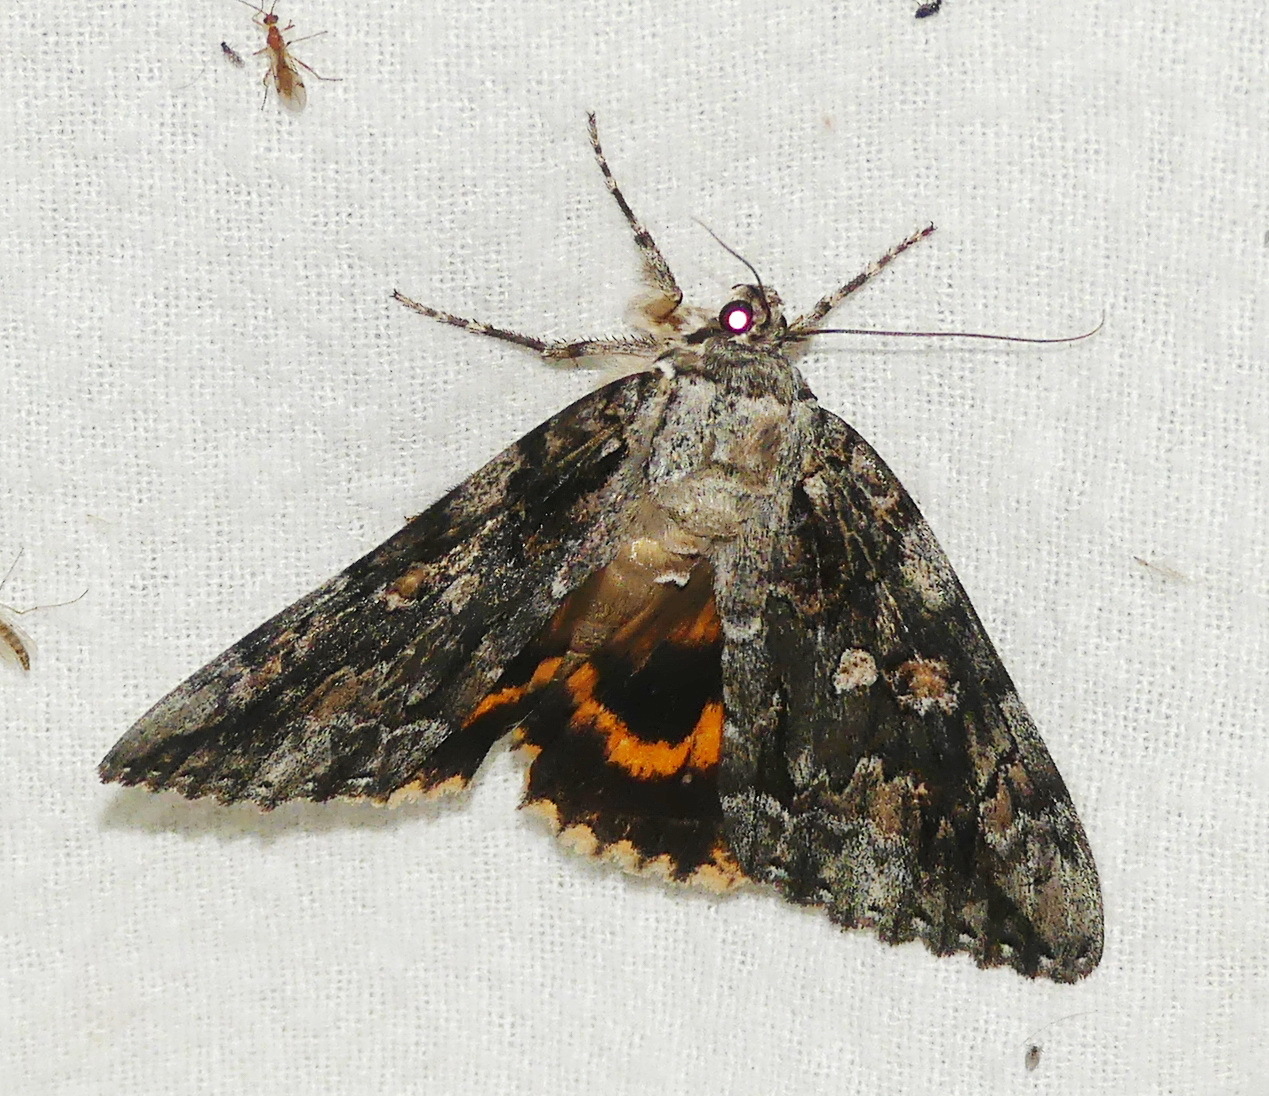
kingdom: Animalia
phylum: Arthropoda
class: Insecta
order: Lepidoptera
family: Erebidae
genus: Catocala
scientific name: Catocala neogama
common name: Bride underwing
